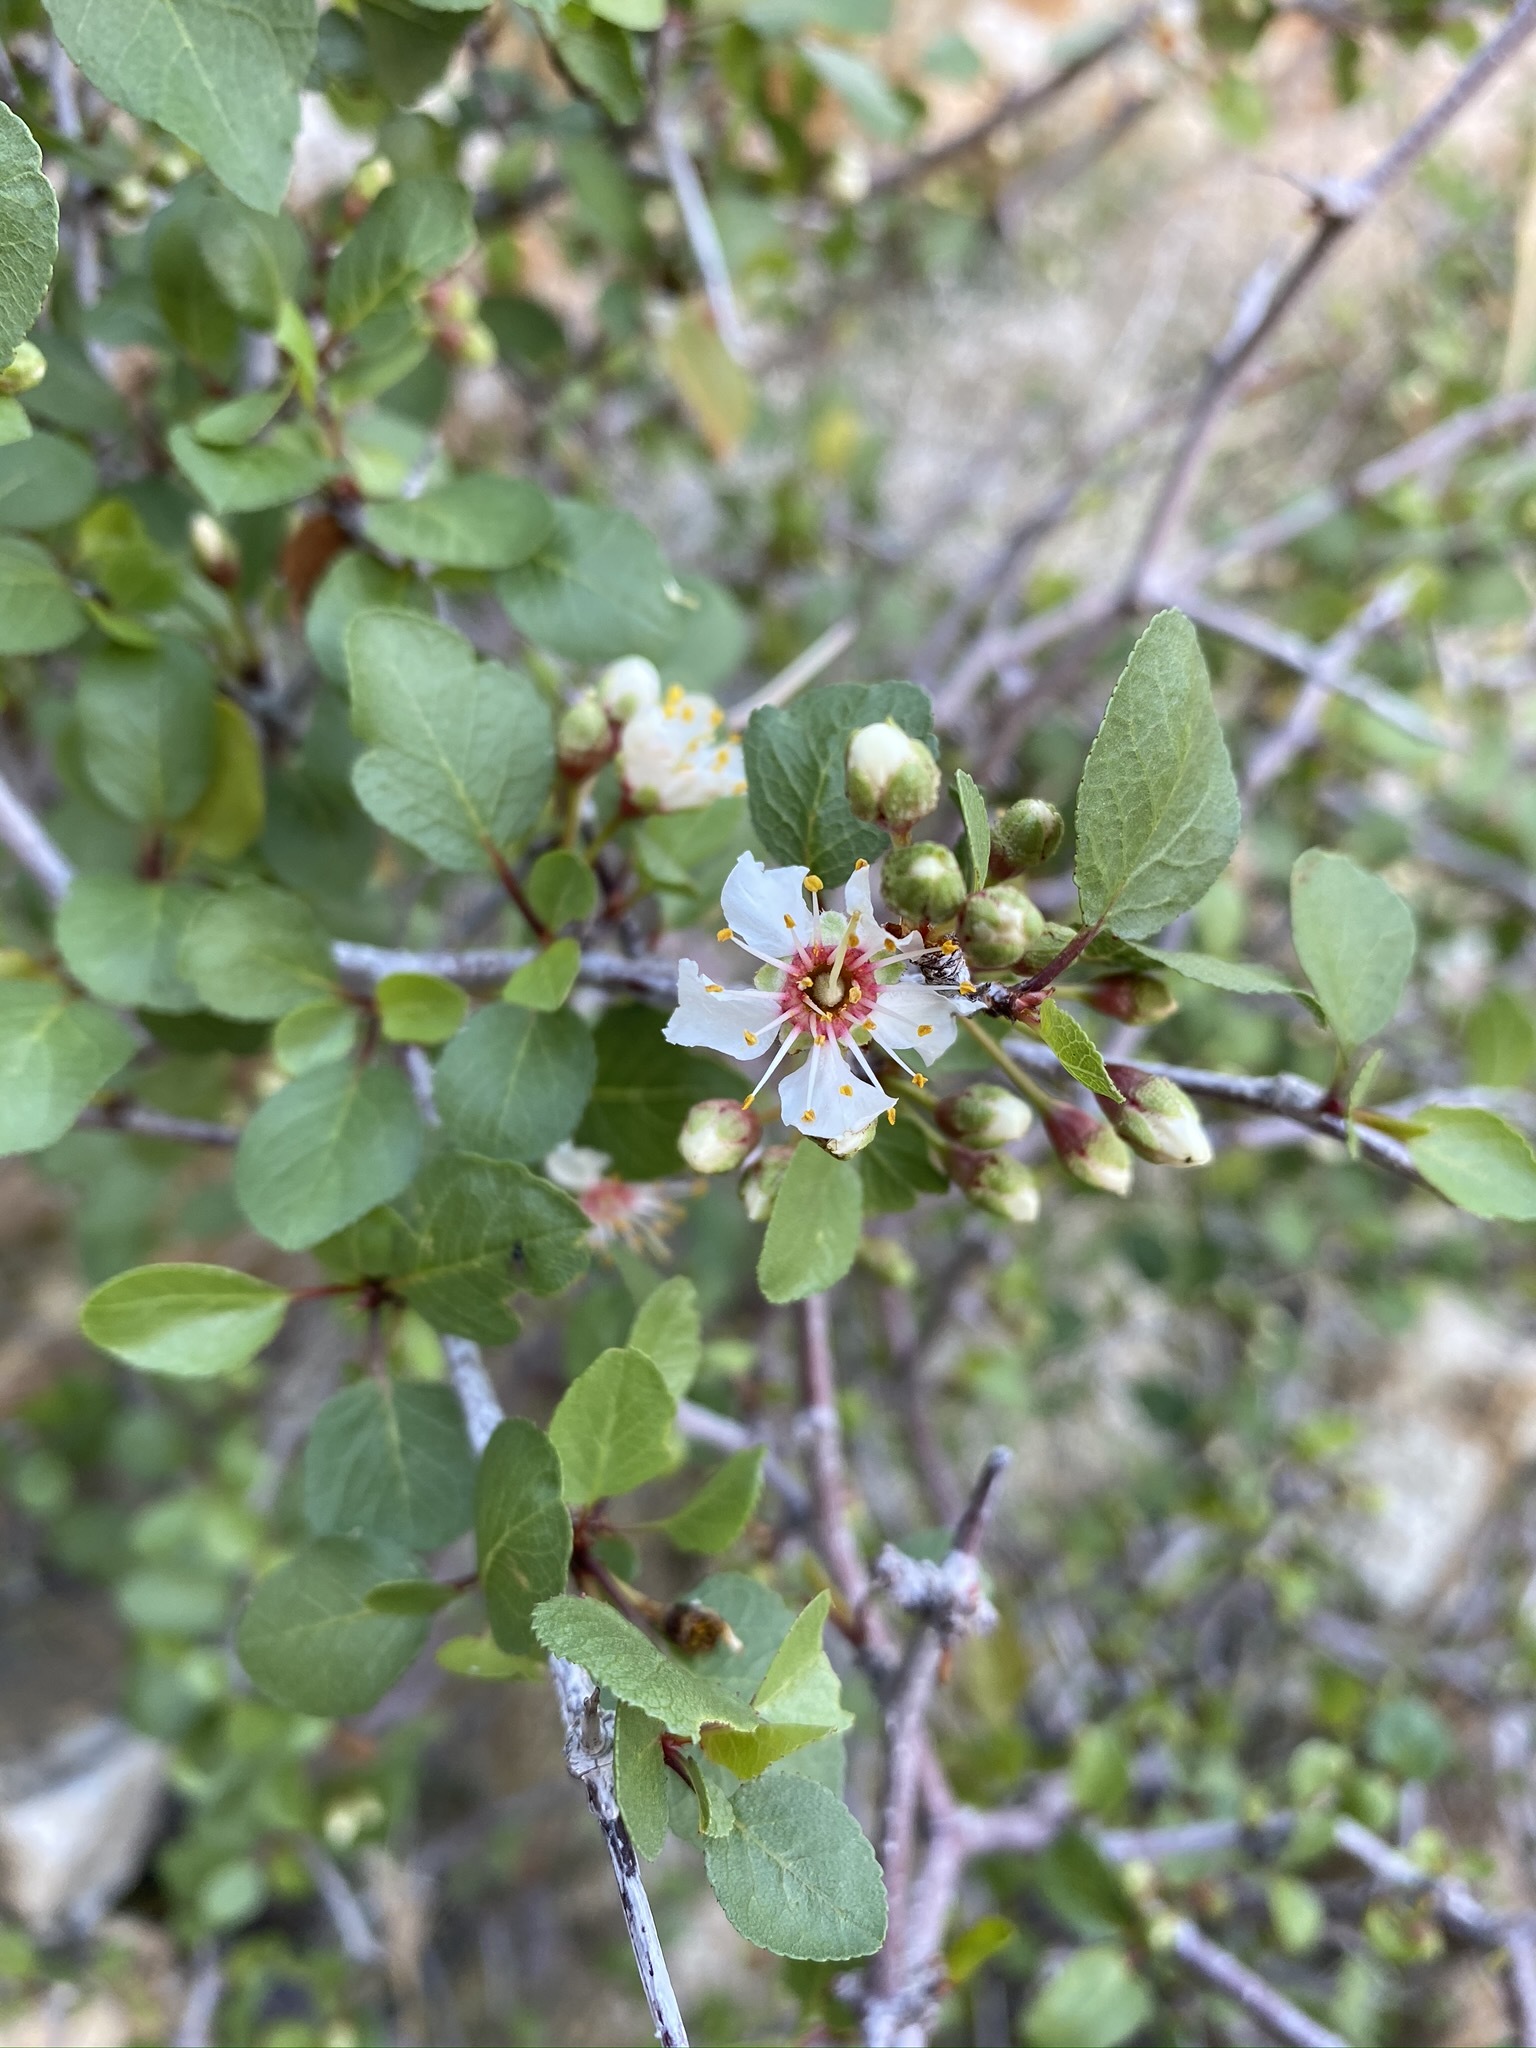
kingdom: Plantae
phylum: Tracheophyta
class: Magnoliopsida
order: Rosales
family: Rosaceae
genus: Prunus
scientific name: Prunus fremontii
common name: Desert apricot
